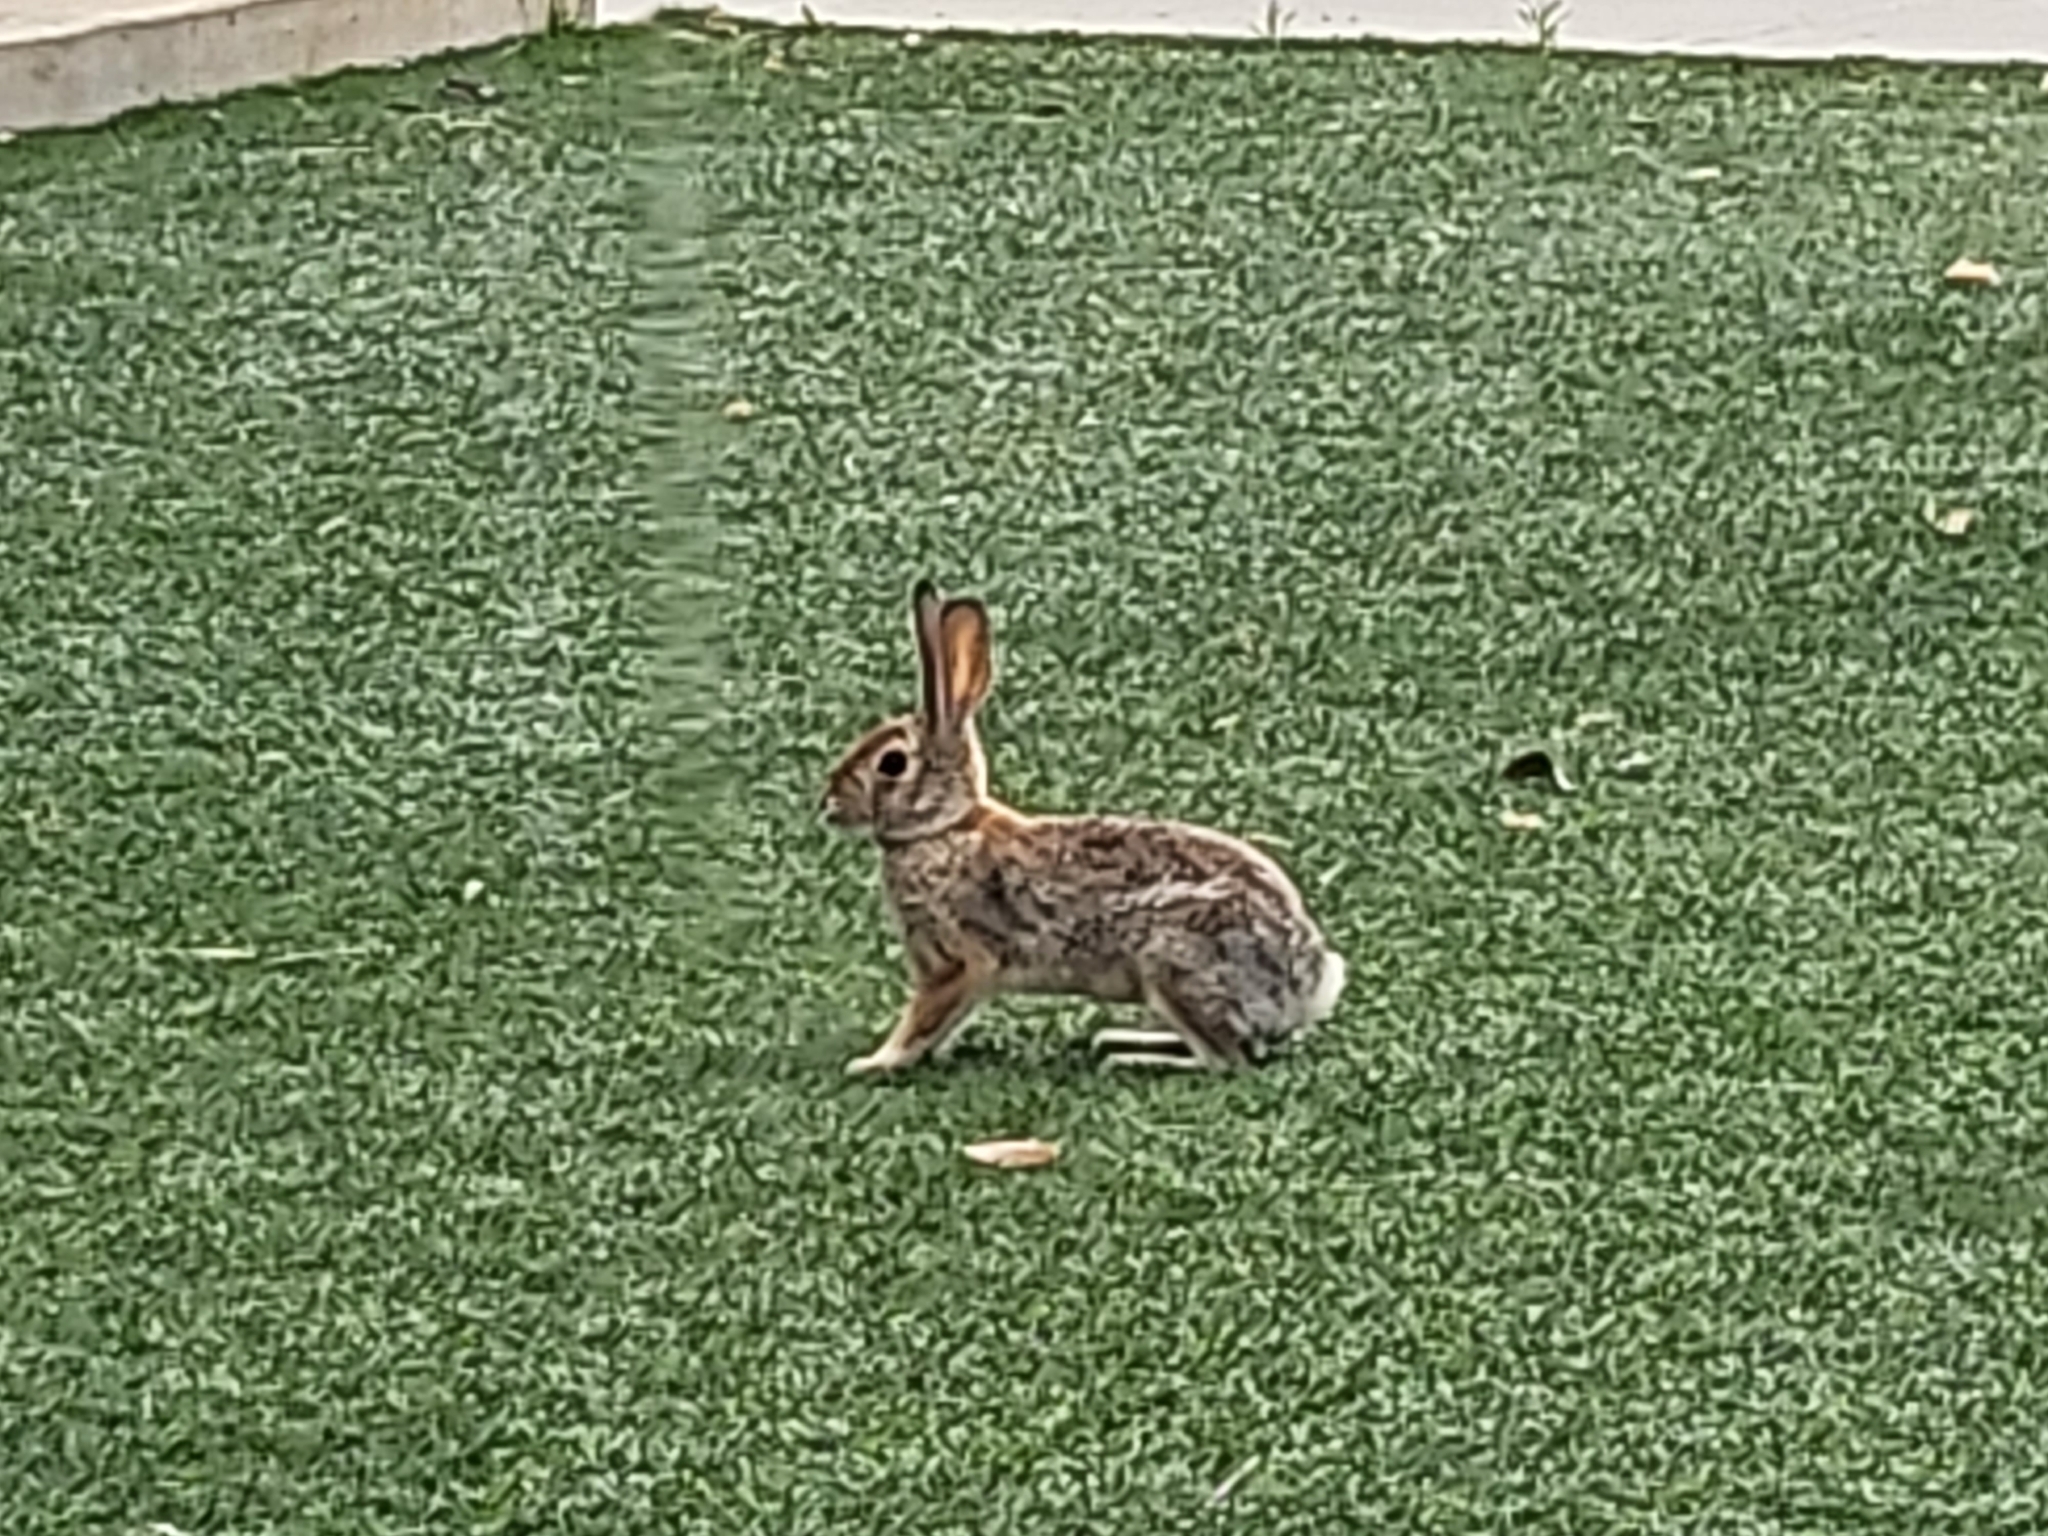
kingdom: Animalia
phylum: Chordata
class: Mammalia
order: Lagomorpha
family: Leporidae
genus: Sylvilagus
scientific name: Sylvilagus audubonii
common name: Desert cottontail
